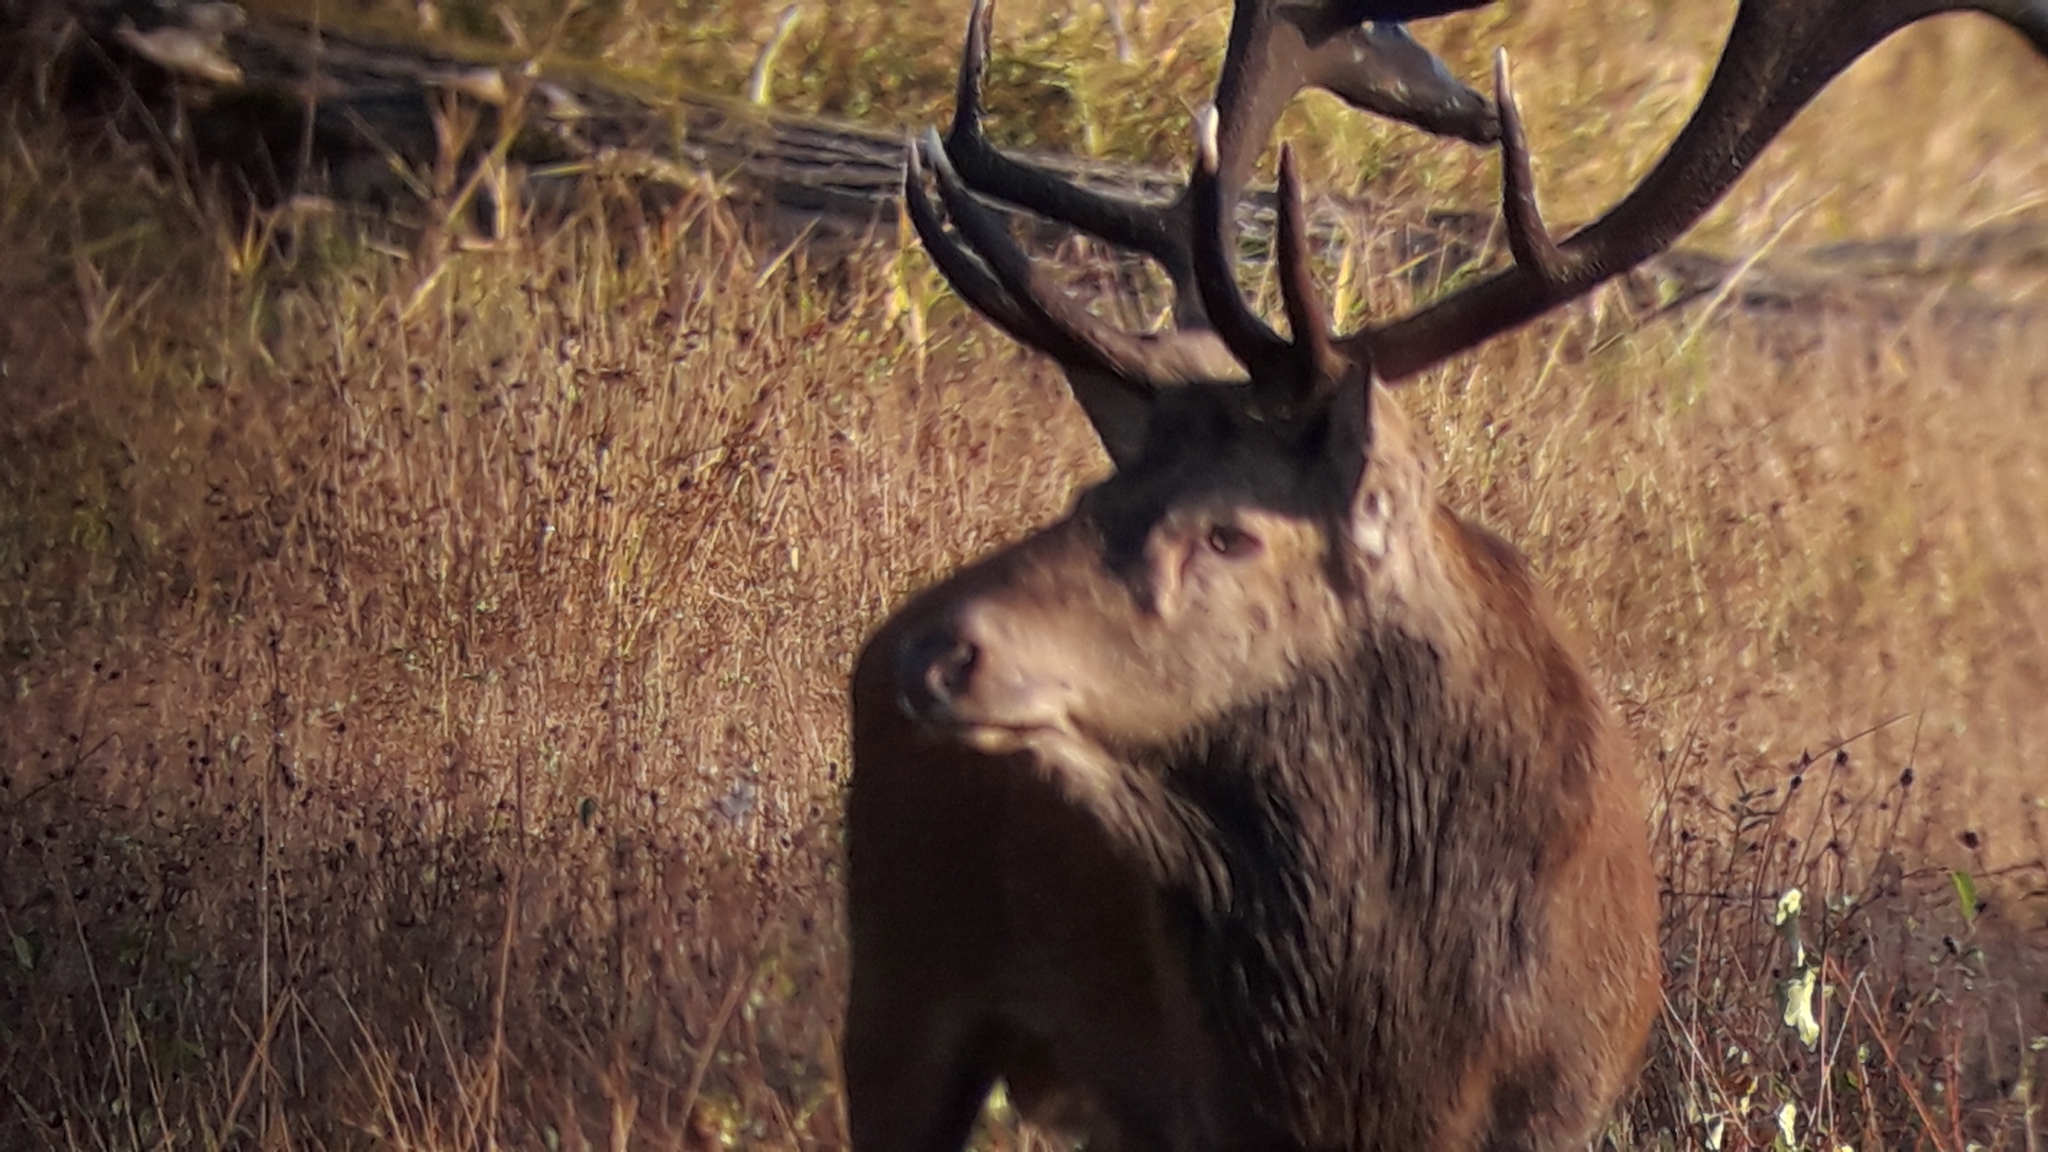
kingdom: Animalia
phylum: Chordata
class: Mammalia
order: Artiodactyla
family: Cervidae
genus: Cervus
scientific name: Cervus elaphus
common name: Red deer
